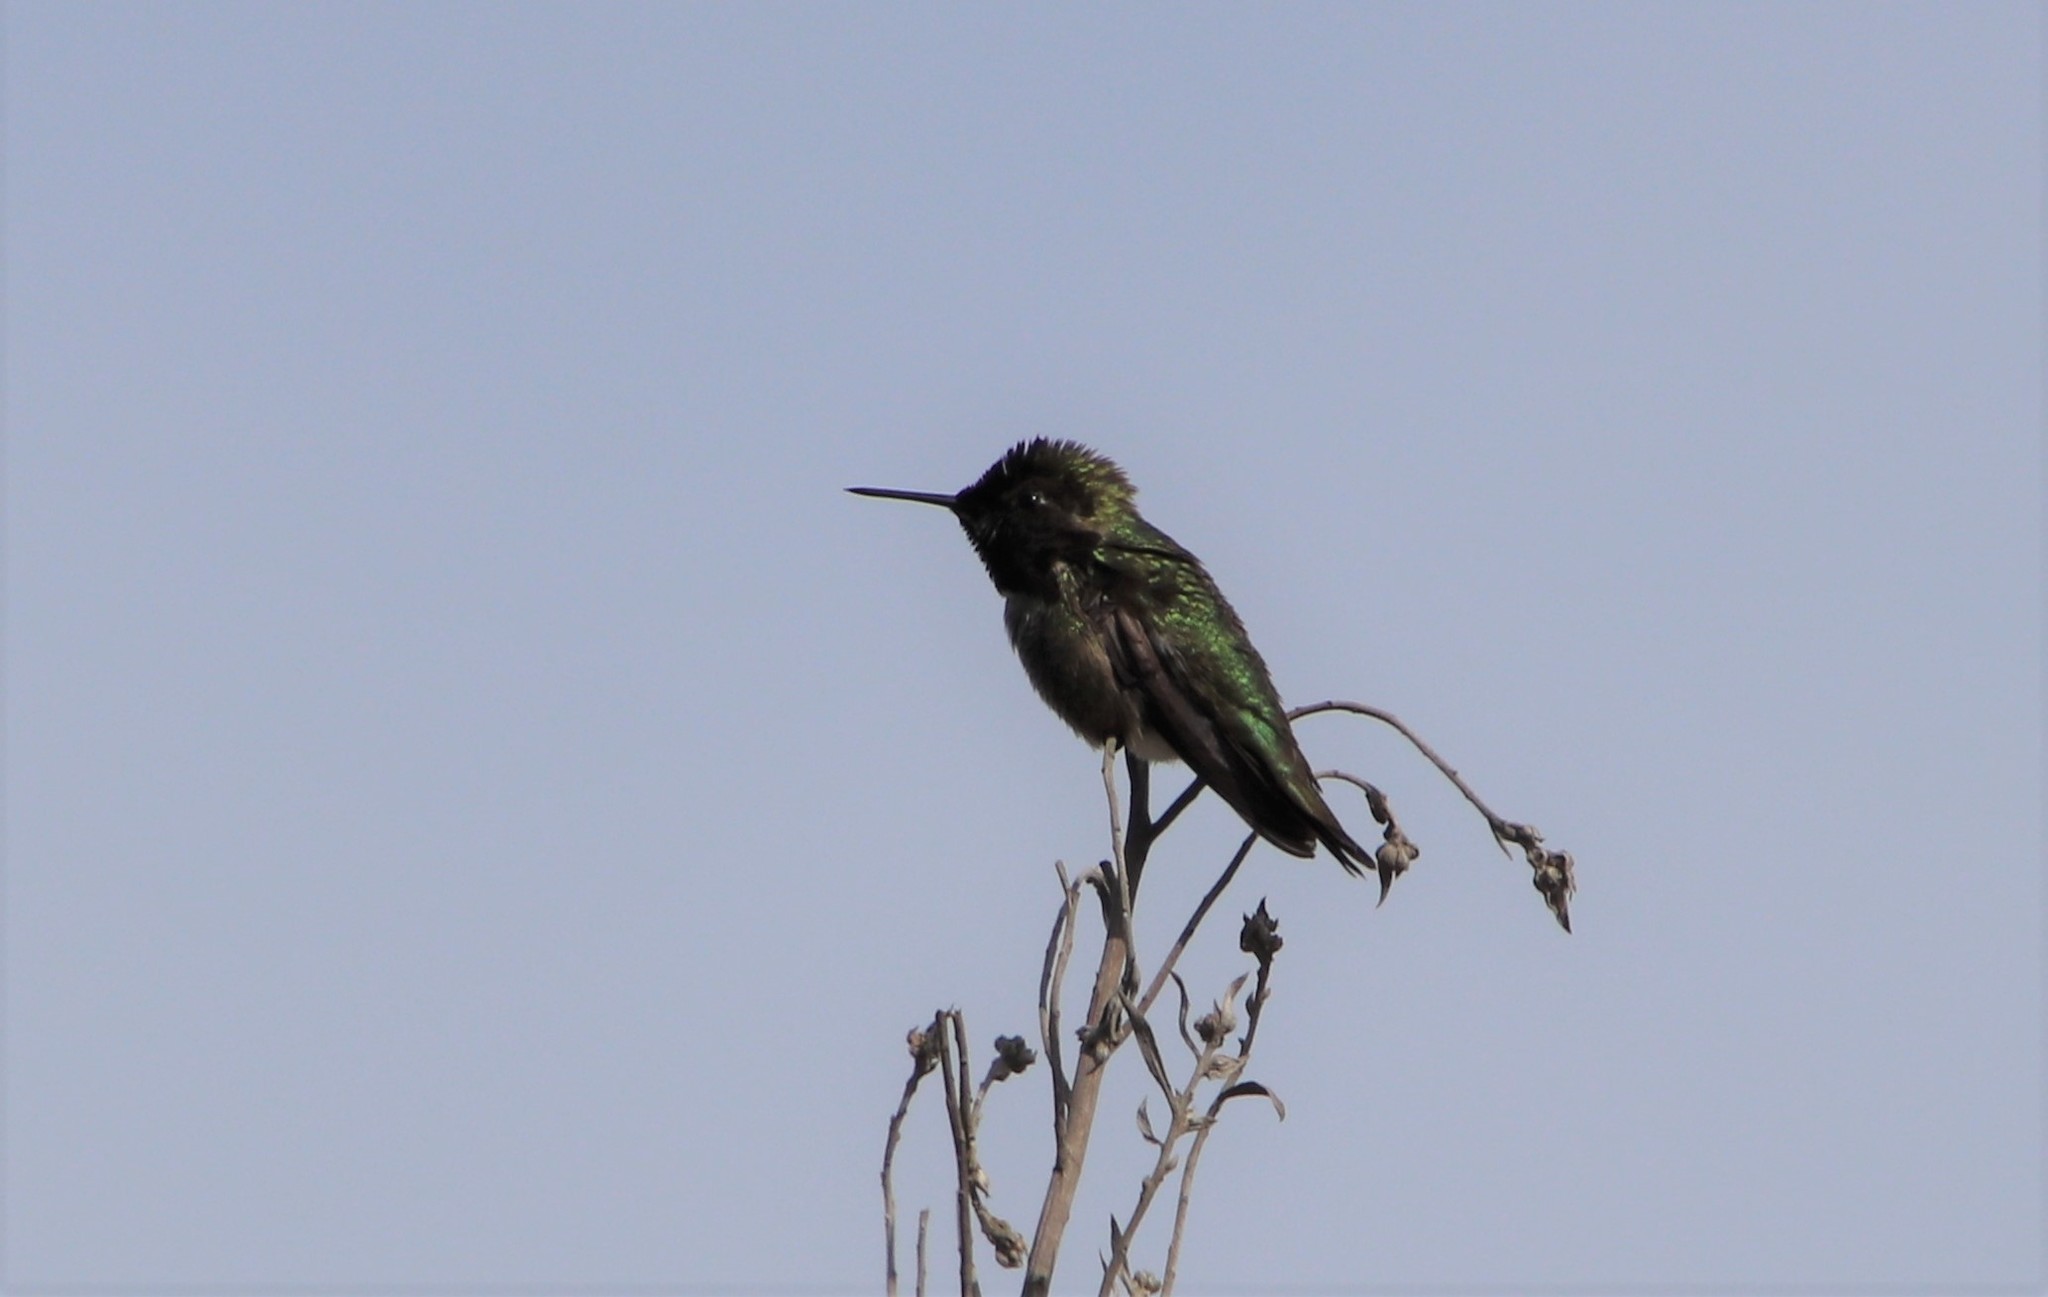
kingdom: Animalia
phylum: Chordata
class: Aves
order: Apodiformes
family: Trochilidae
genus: Calypte
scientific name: Calypte anna
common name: Anna's hummingbird
